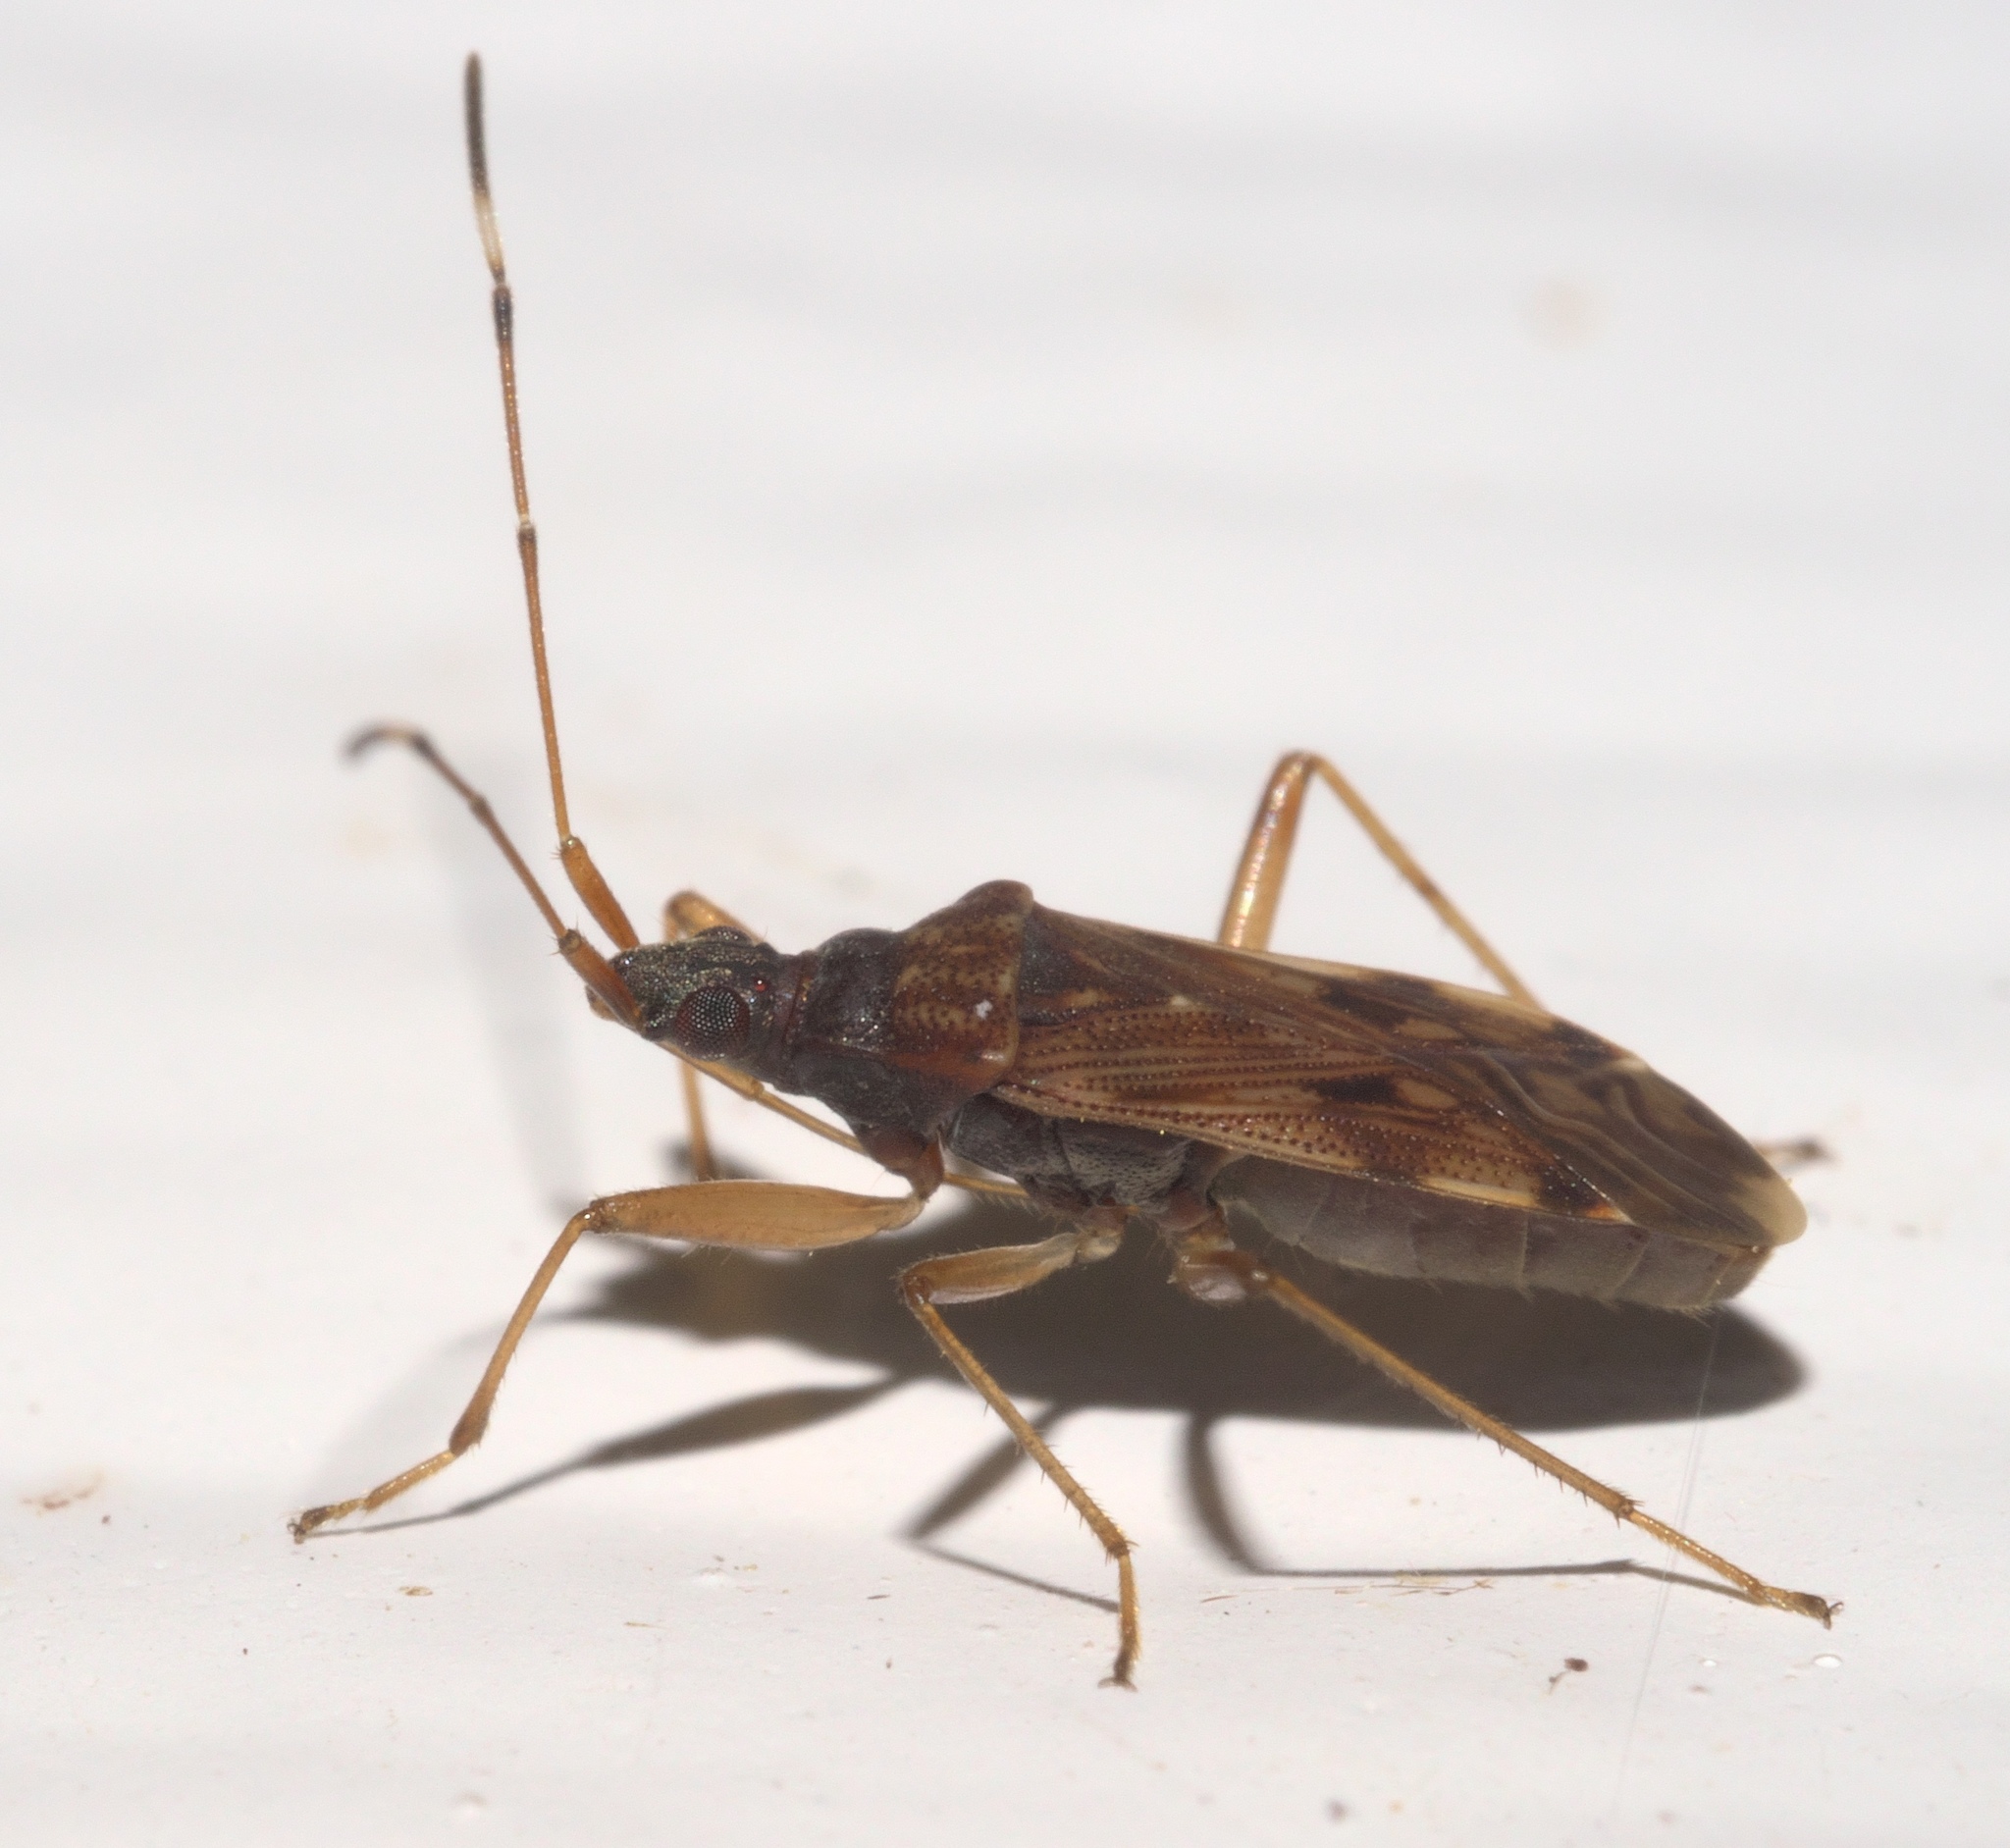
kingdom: Animalia
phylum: Arthropoda
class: Insecta
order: Hemiptera
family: Rhyparochromidae
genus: Ozophora
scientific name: Ozophora picturata
